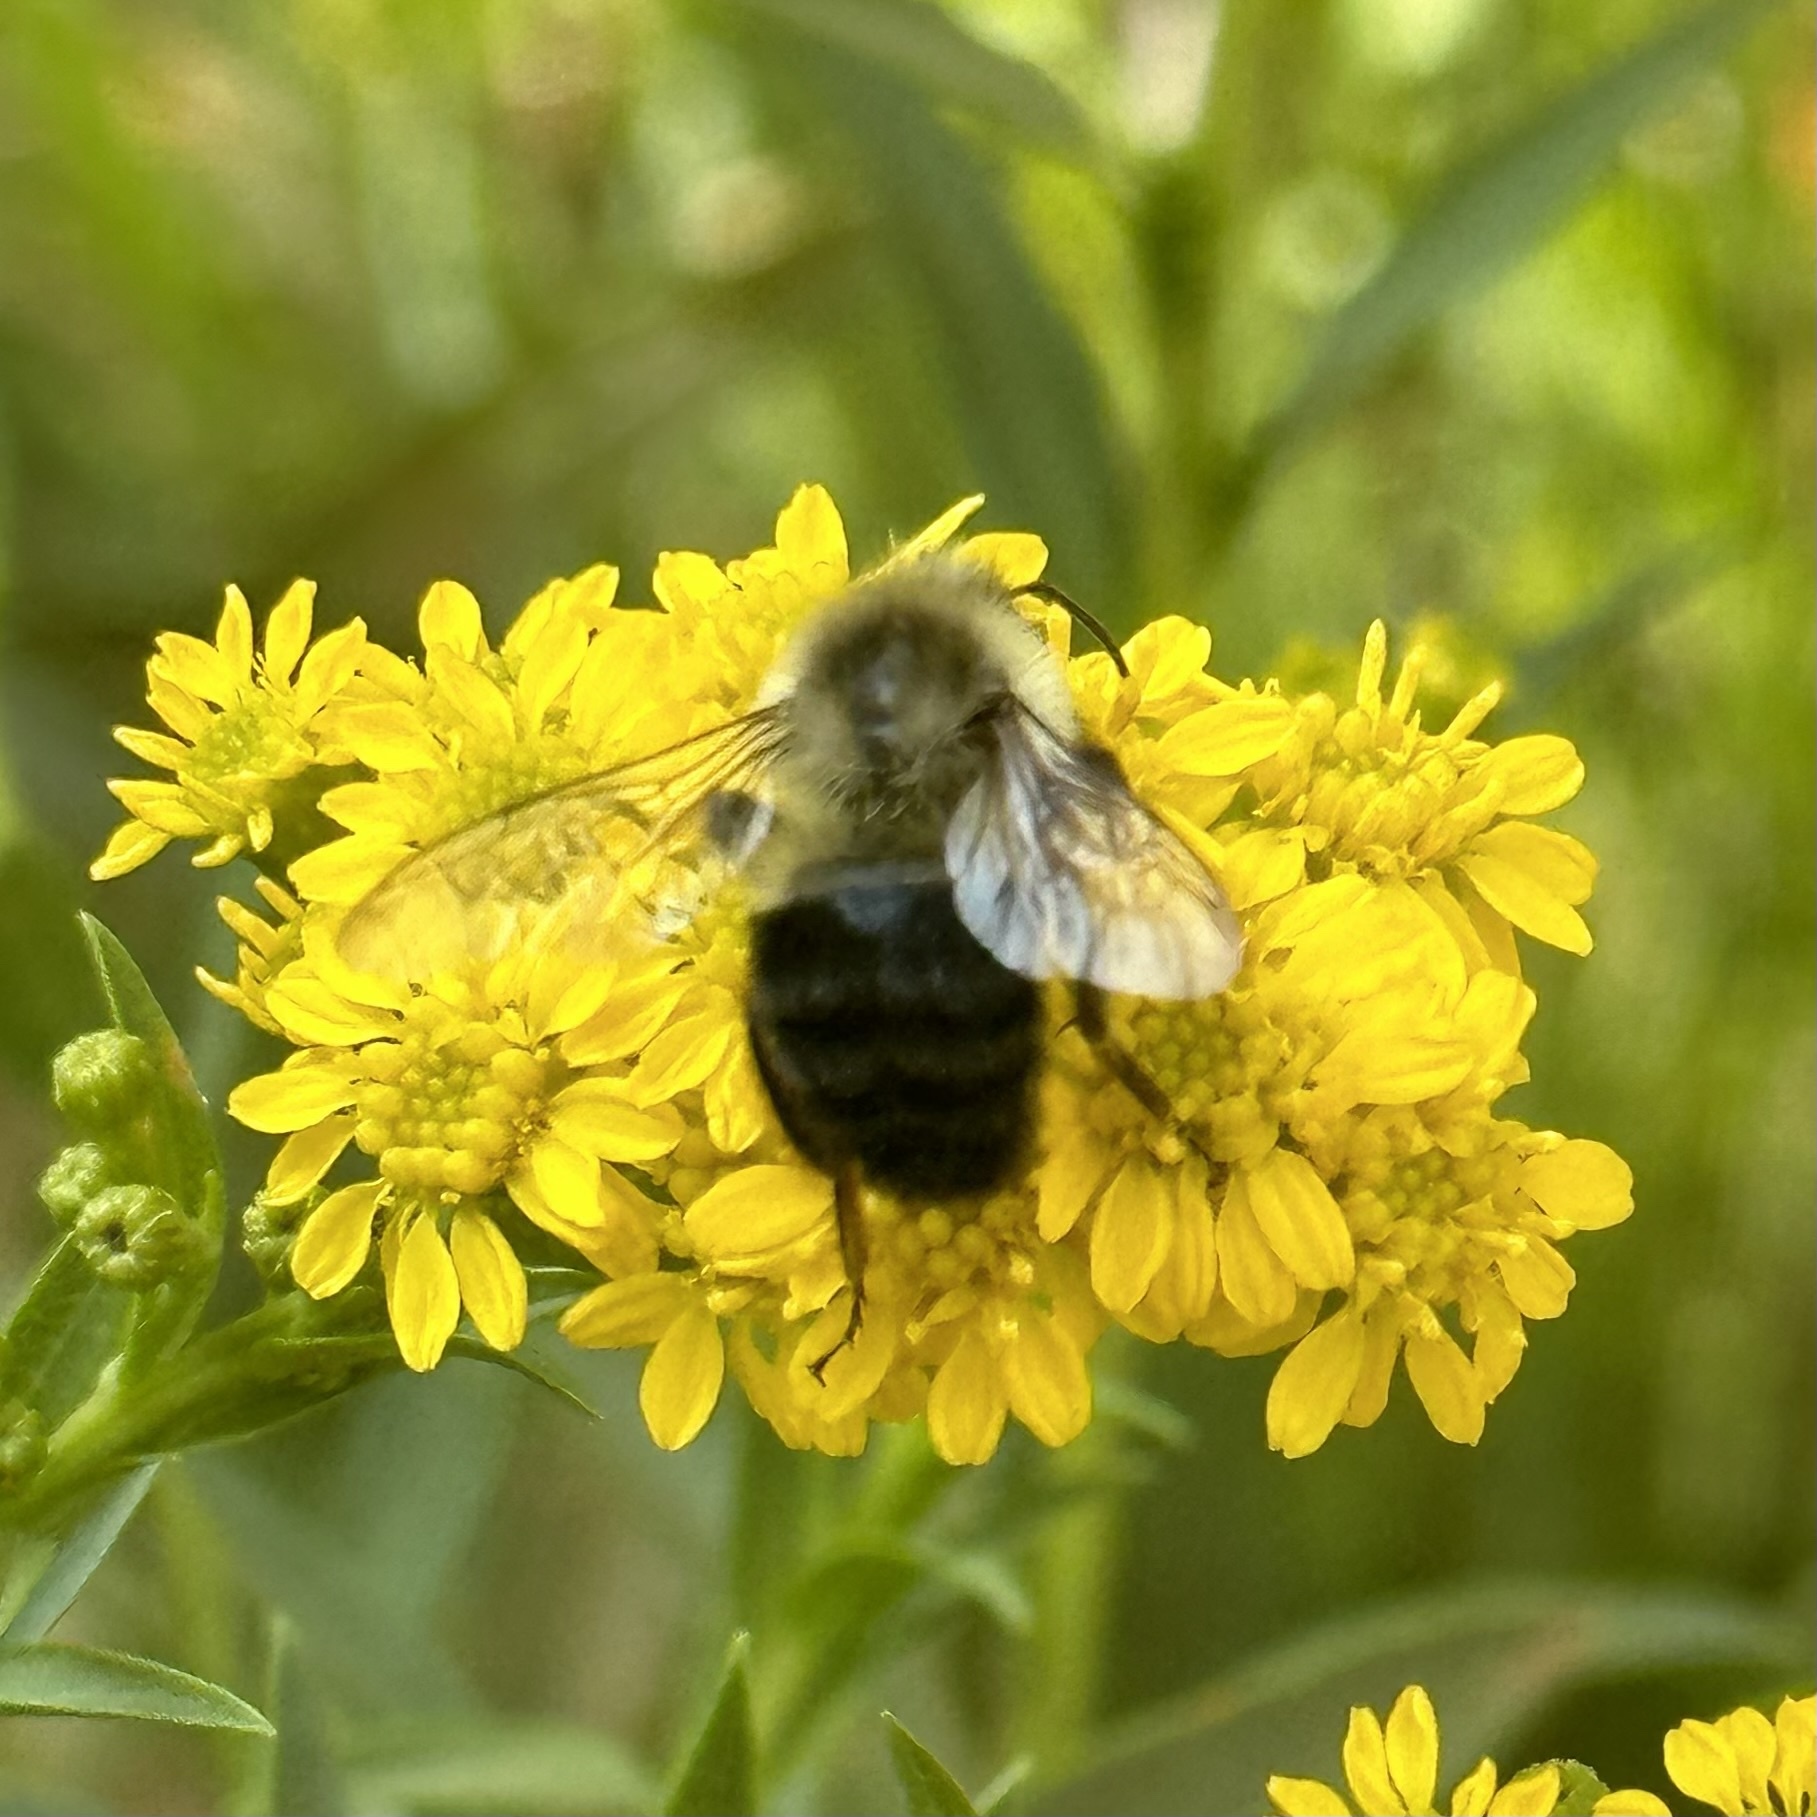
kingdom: Animalia
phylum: Arthropoda
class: Insecta
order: Hymenoptera
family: Apidae
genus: Bombus
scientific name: Bombus impatiens
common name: Common eastern bumble bee
